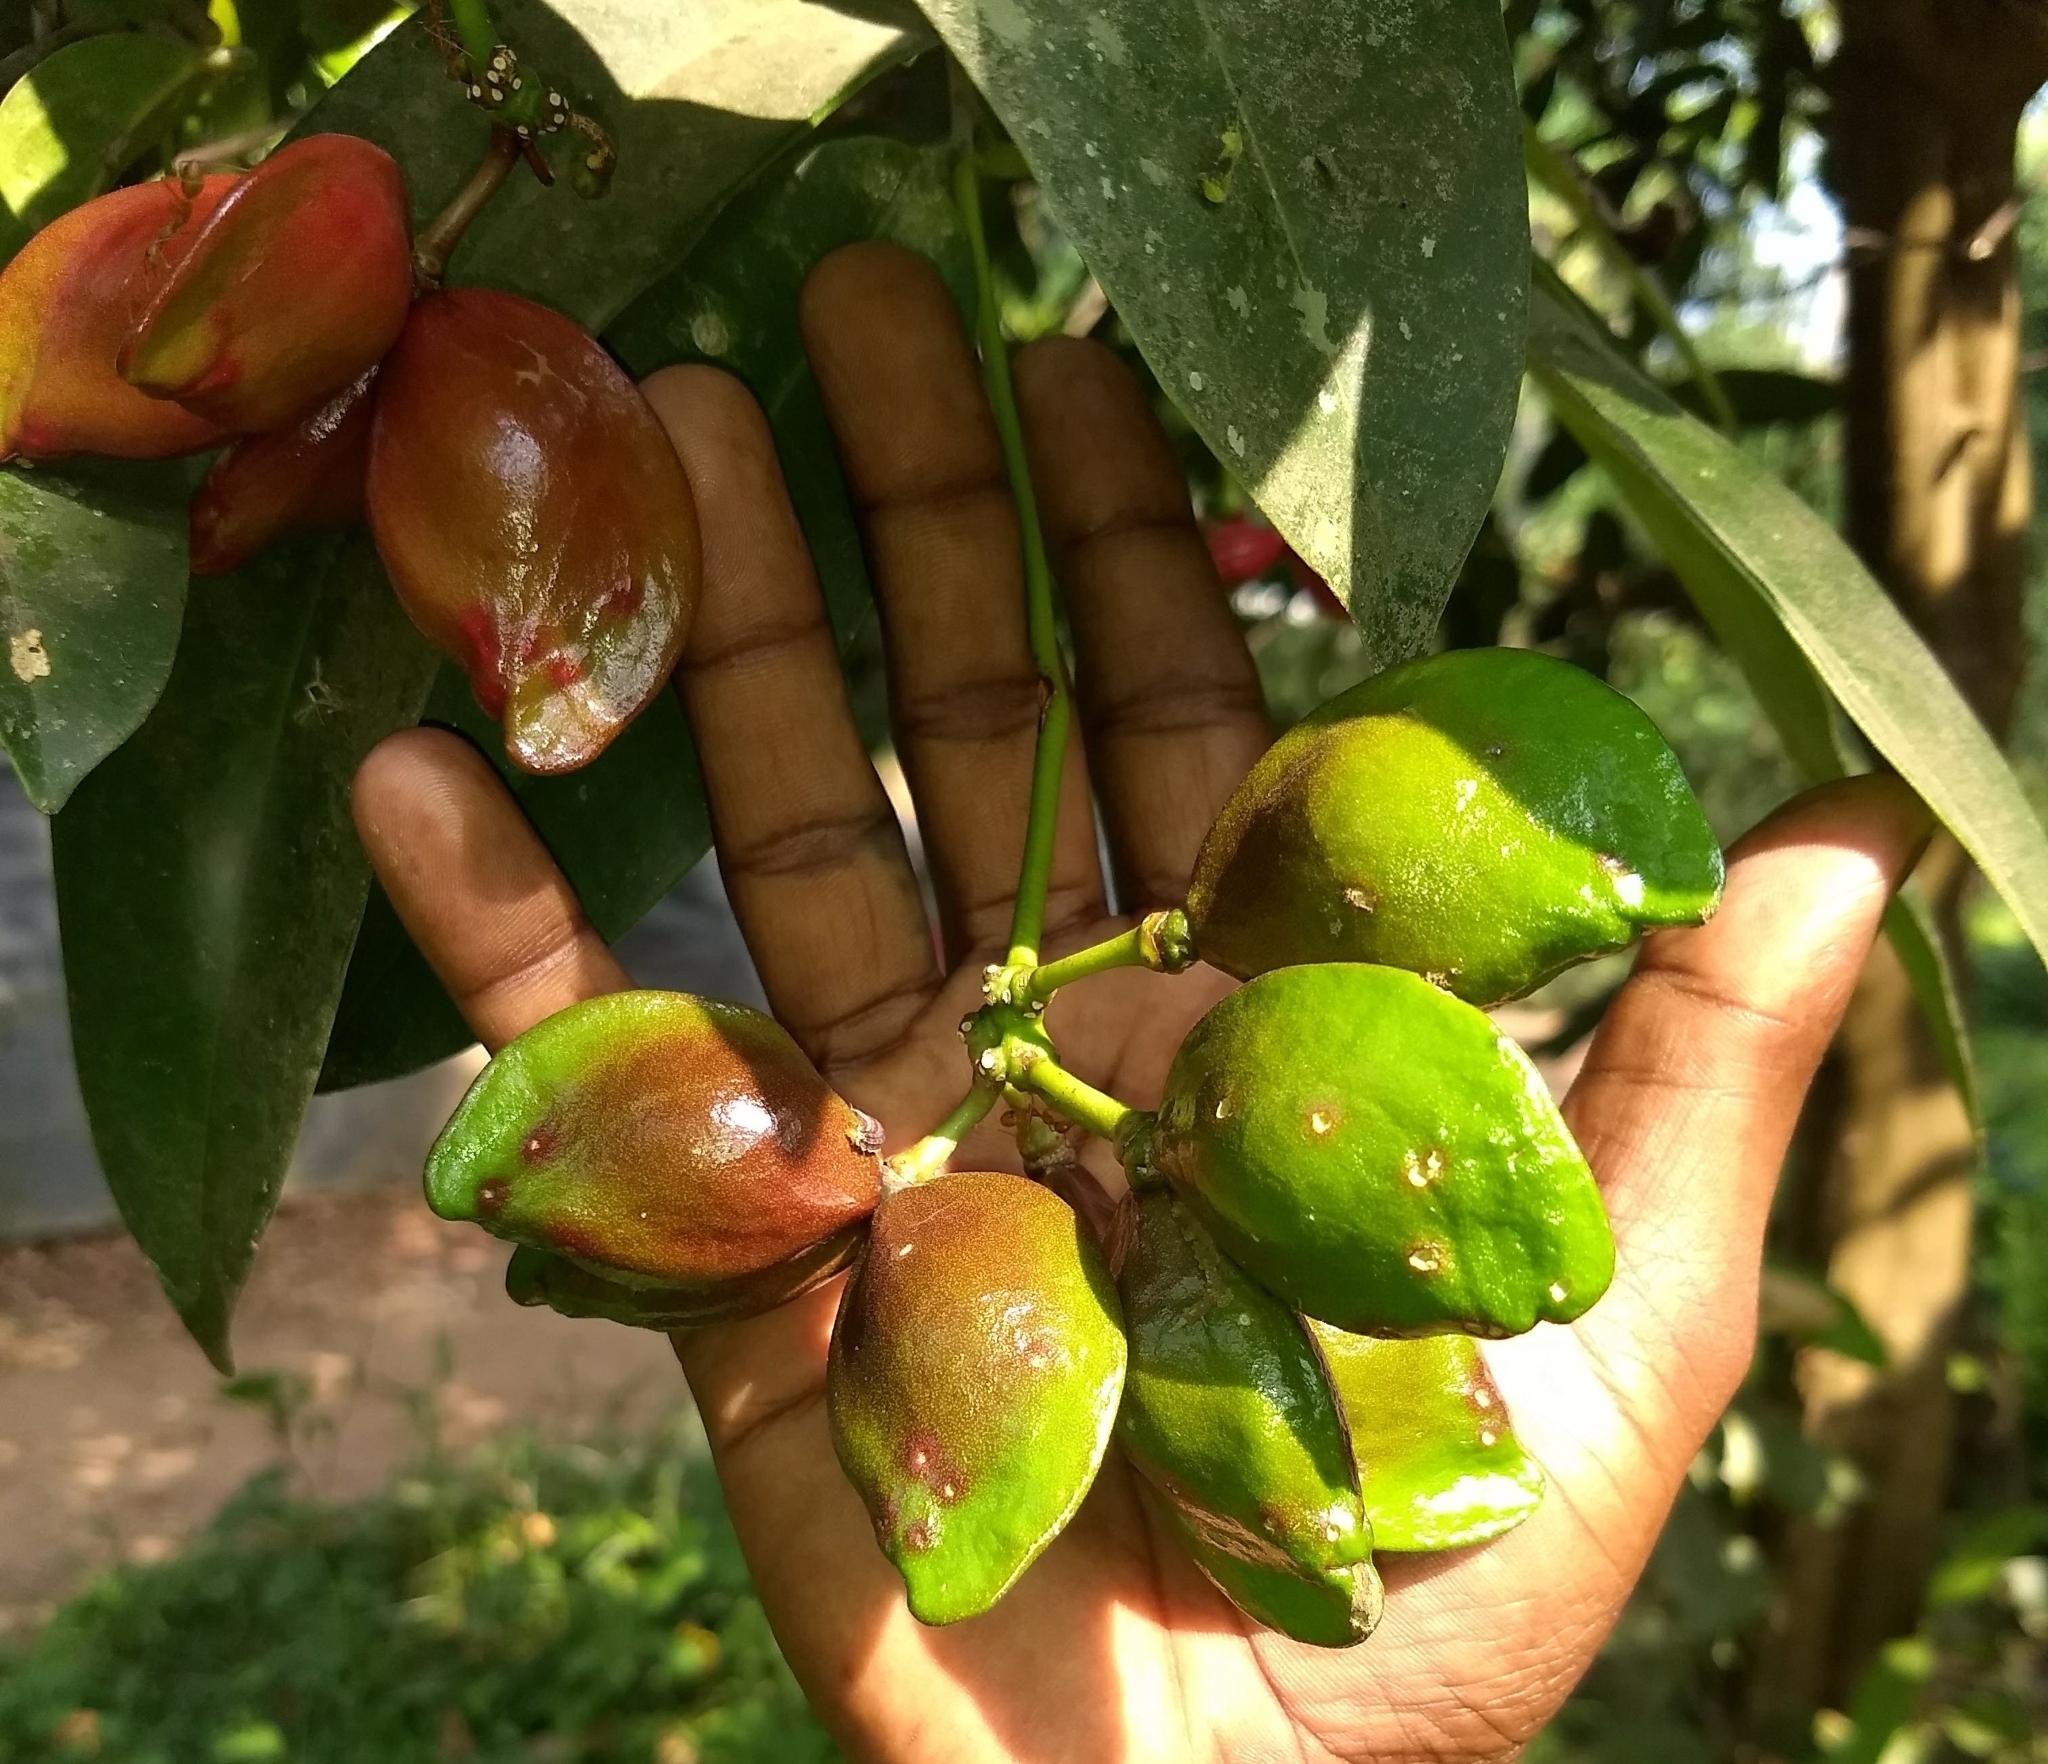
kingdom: Plantae
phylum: Tracheophyta
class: Magnoliopsida
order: Sapindales
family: Simaroubaceae
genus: Samadera
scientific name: Samadera indica
